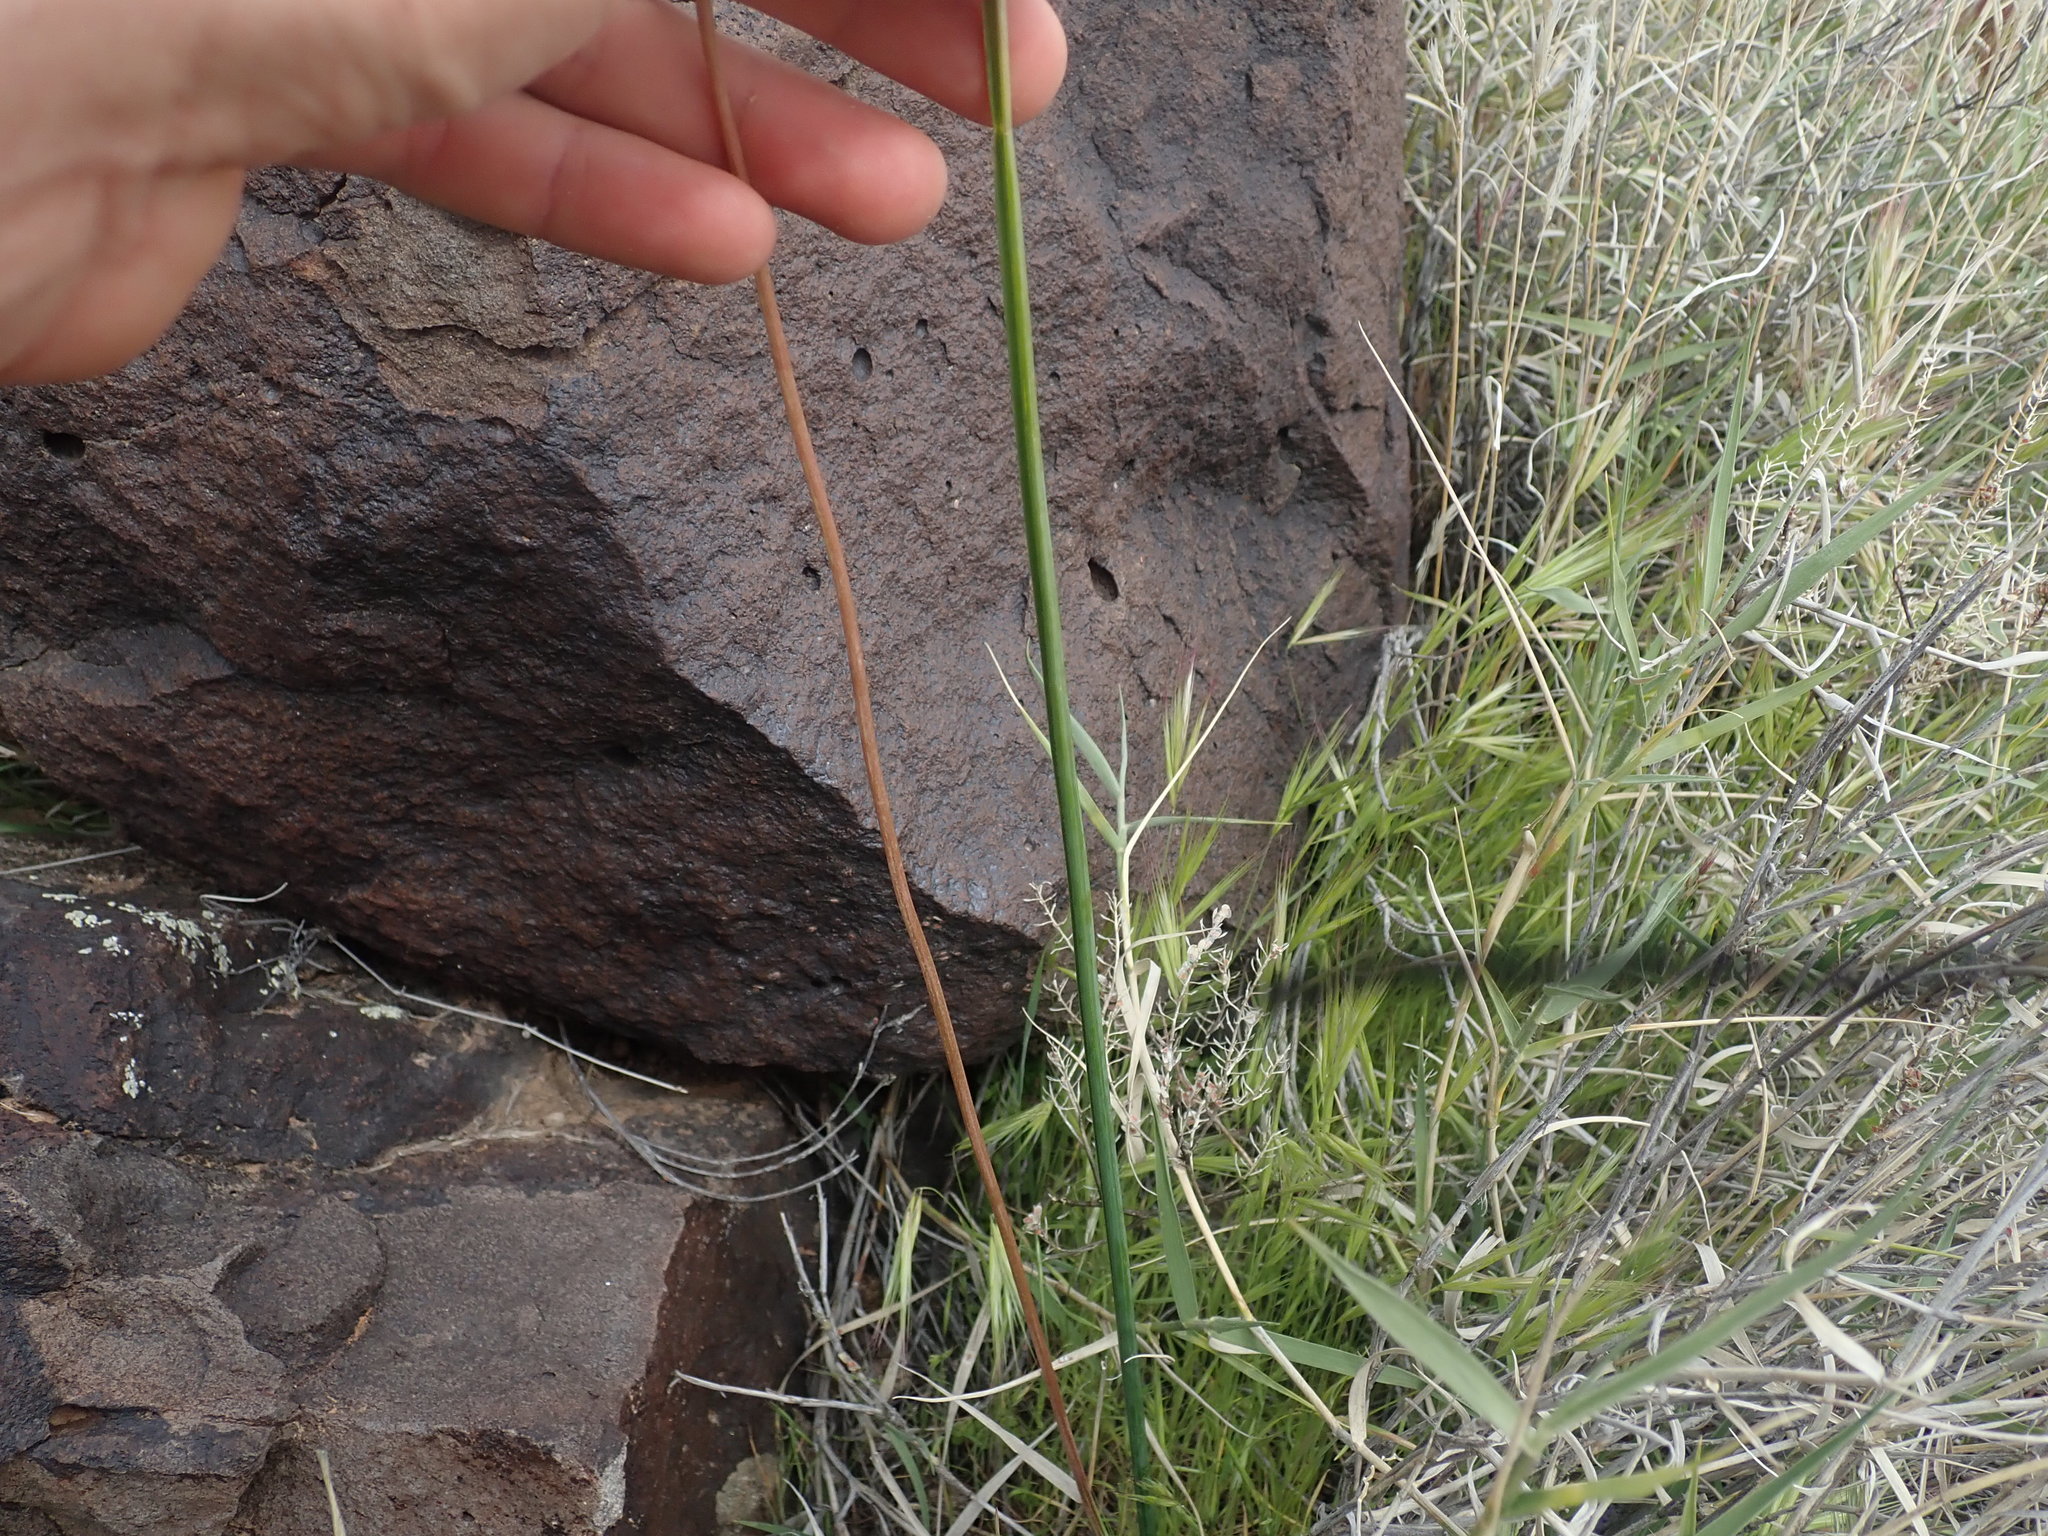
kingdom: Plantae
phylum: Tracheophyta
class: Liliopsida
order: Asparagales
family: Asparagaceae
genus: Dipterostemon
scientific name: Dipterostemon capitatus
